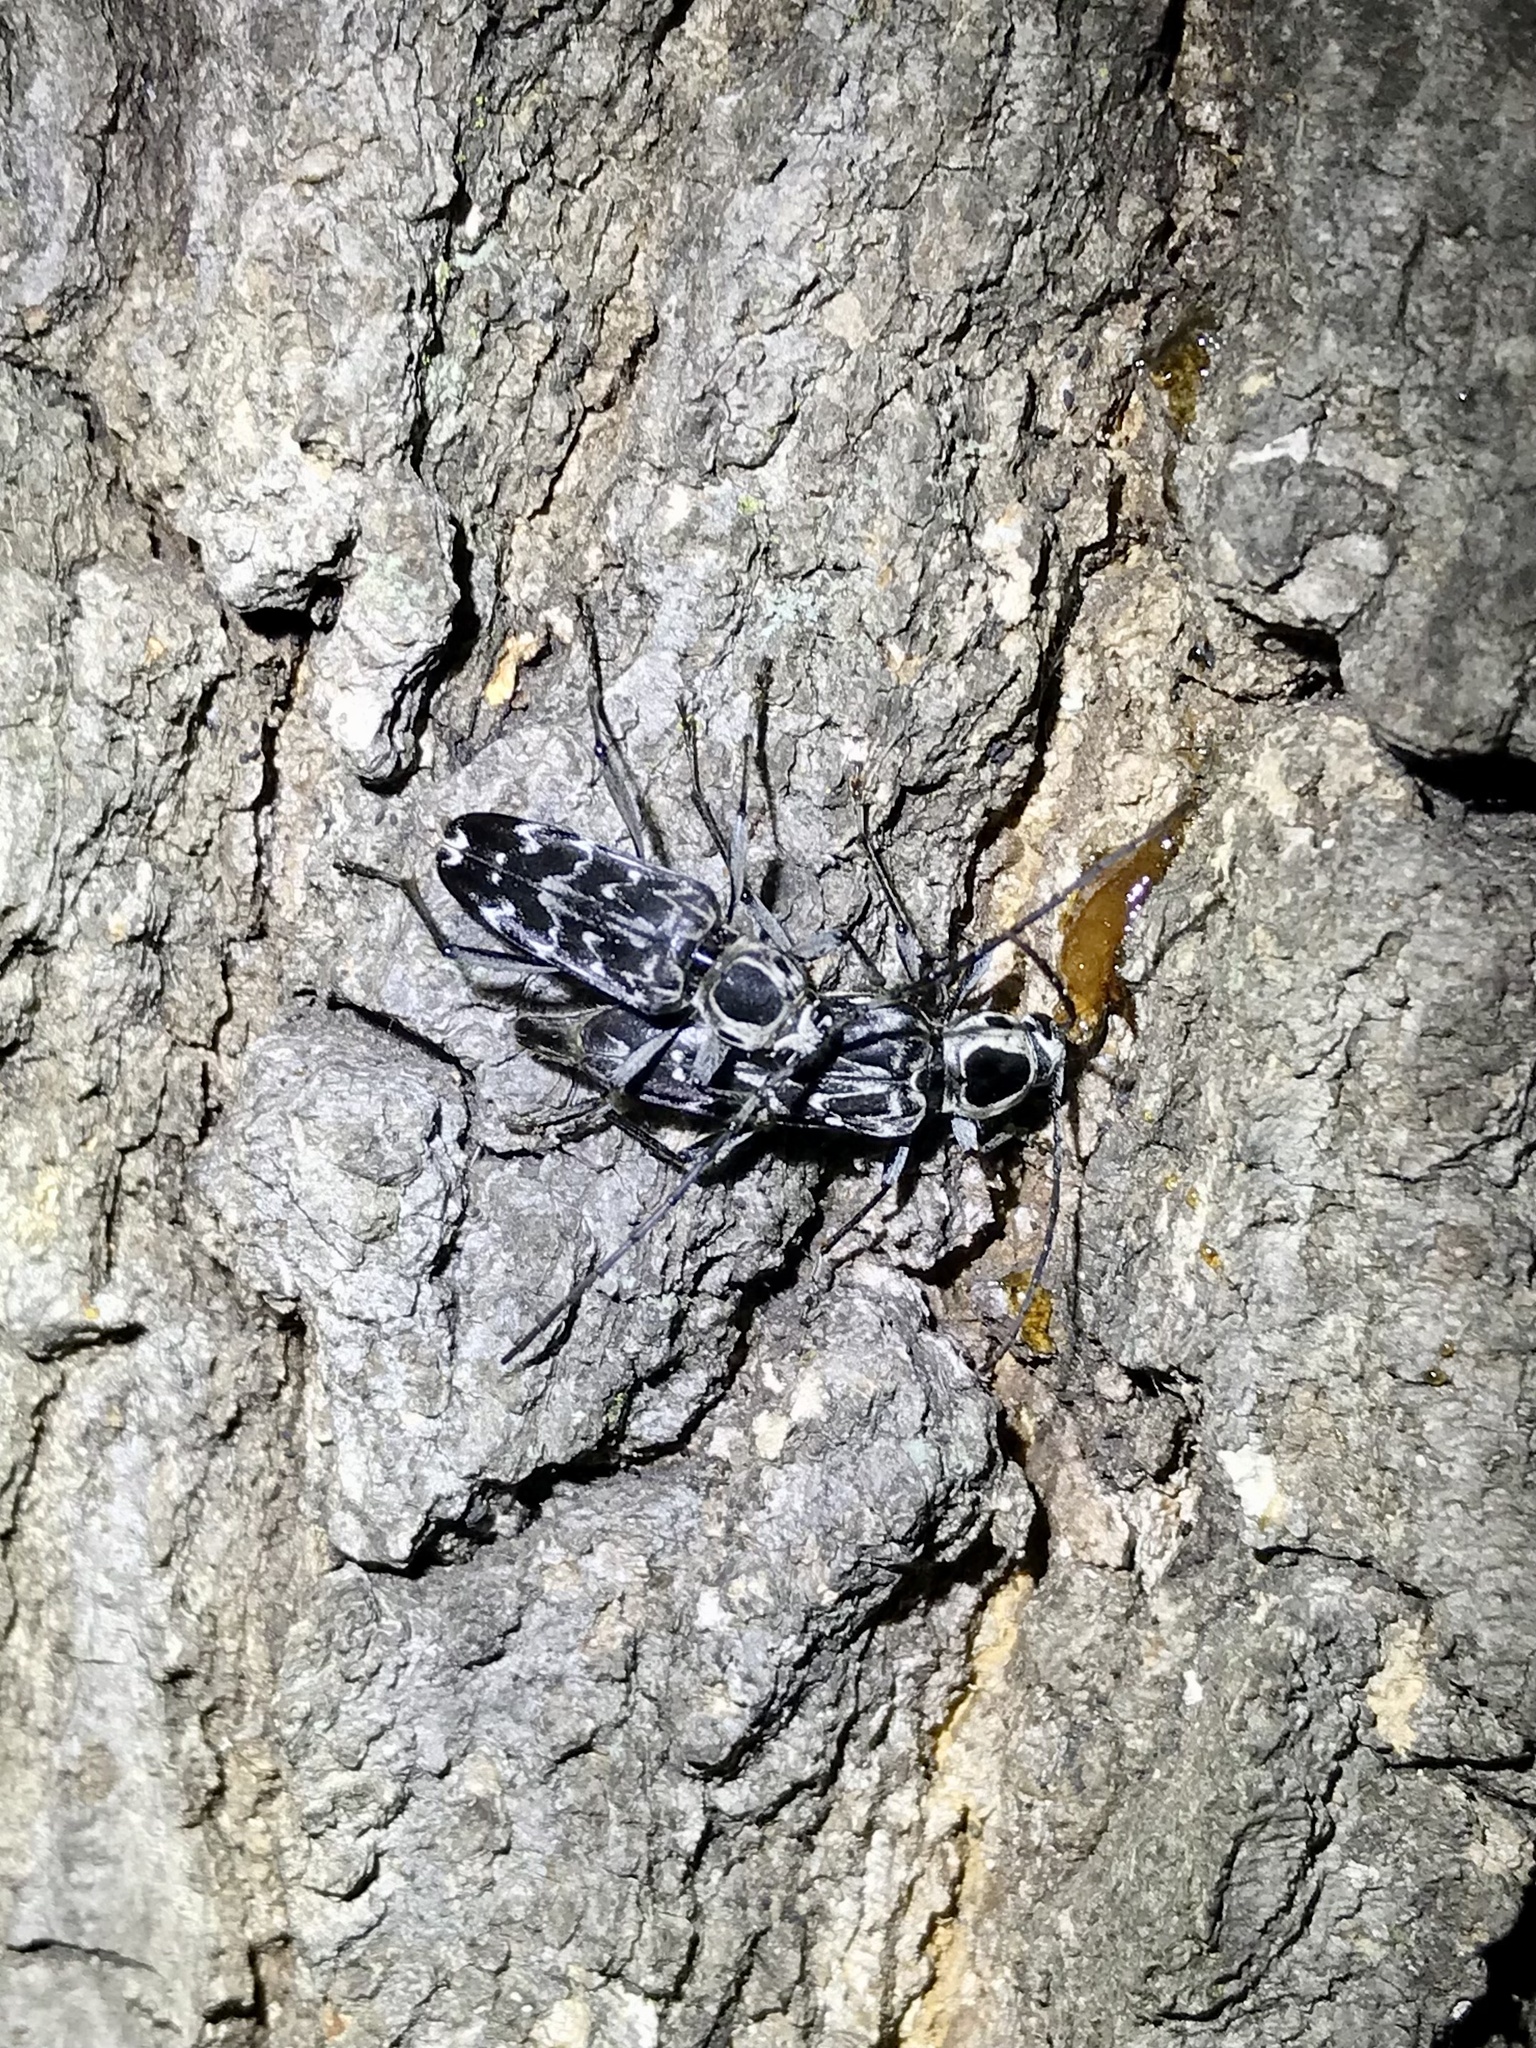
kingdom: Animalia
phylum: Arthropoda
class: Insecta
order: Coleoptera
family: Cerambycidae
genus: Sarosesthes
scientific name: Sarosesthes fulminans
